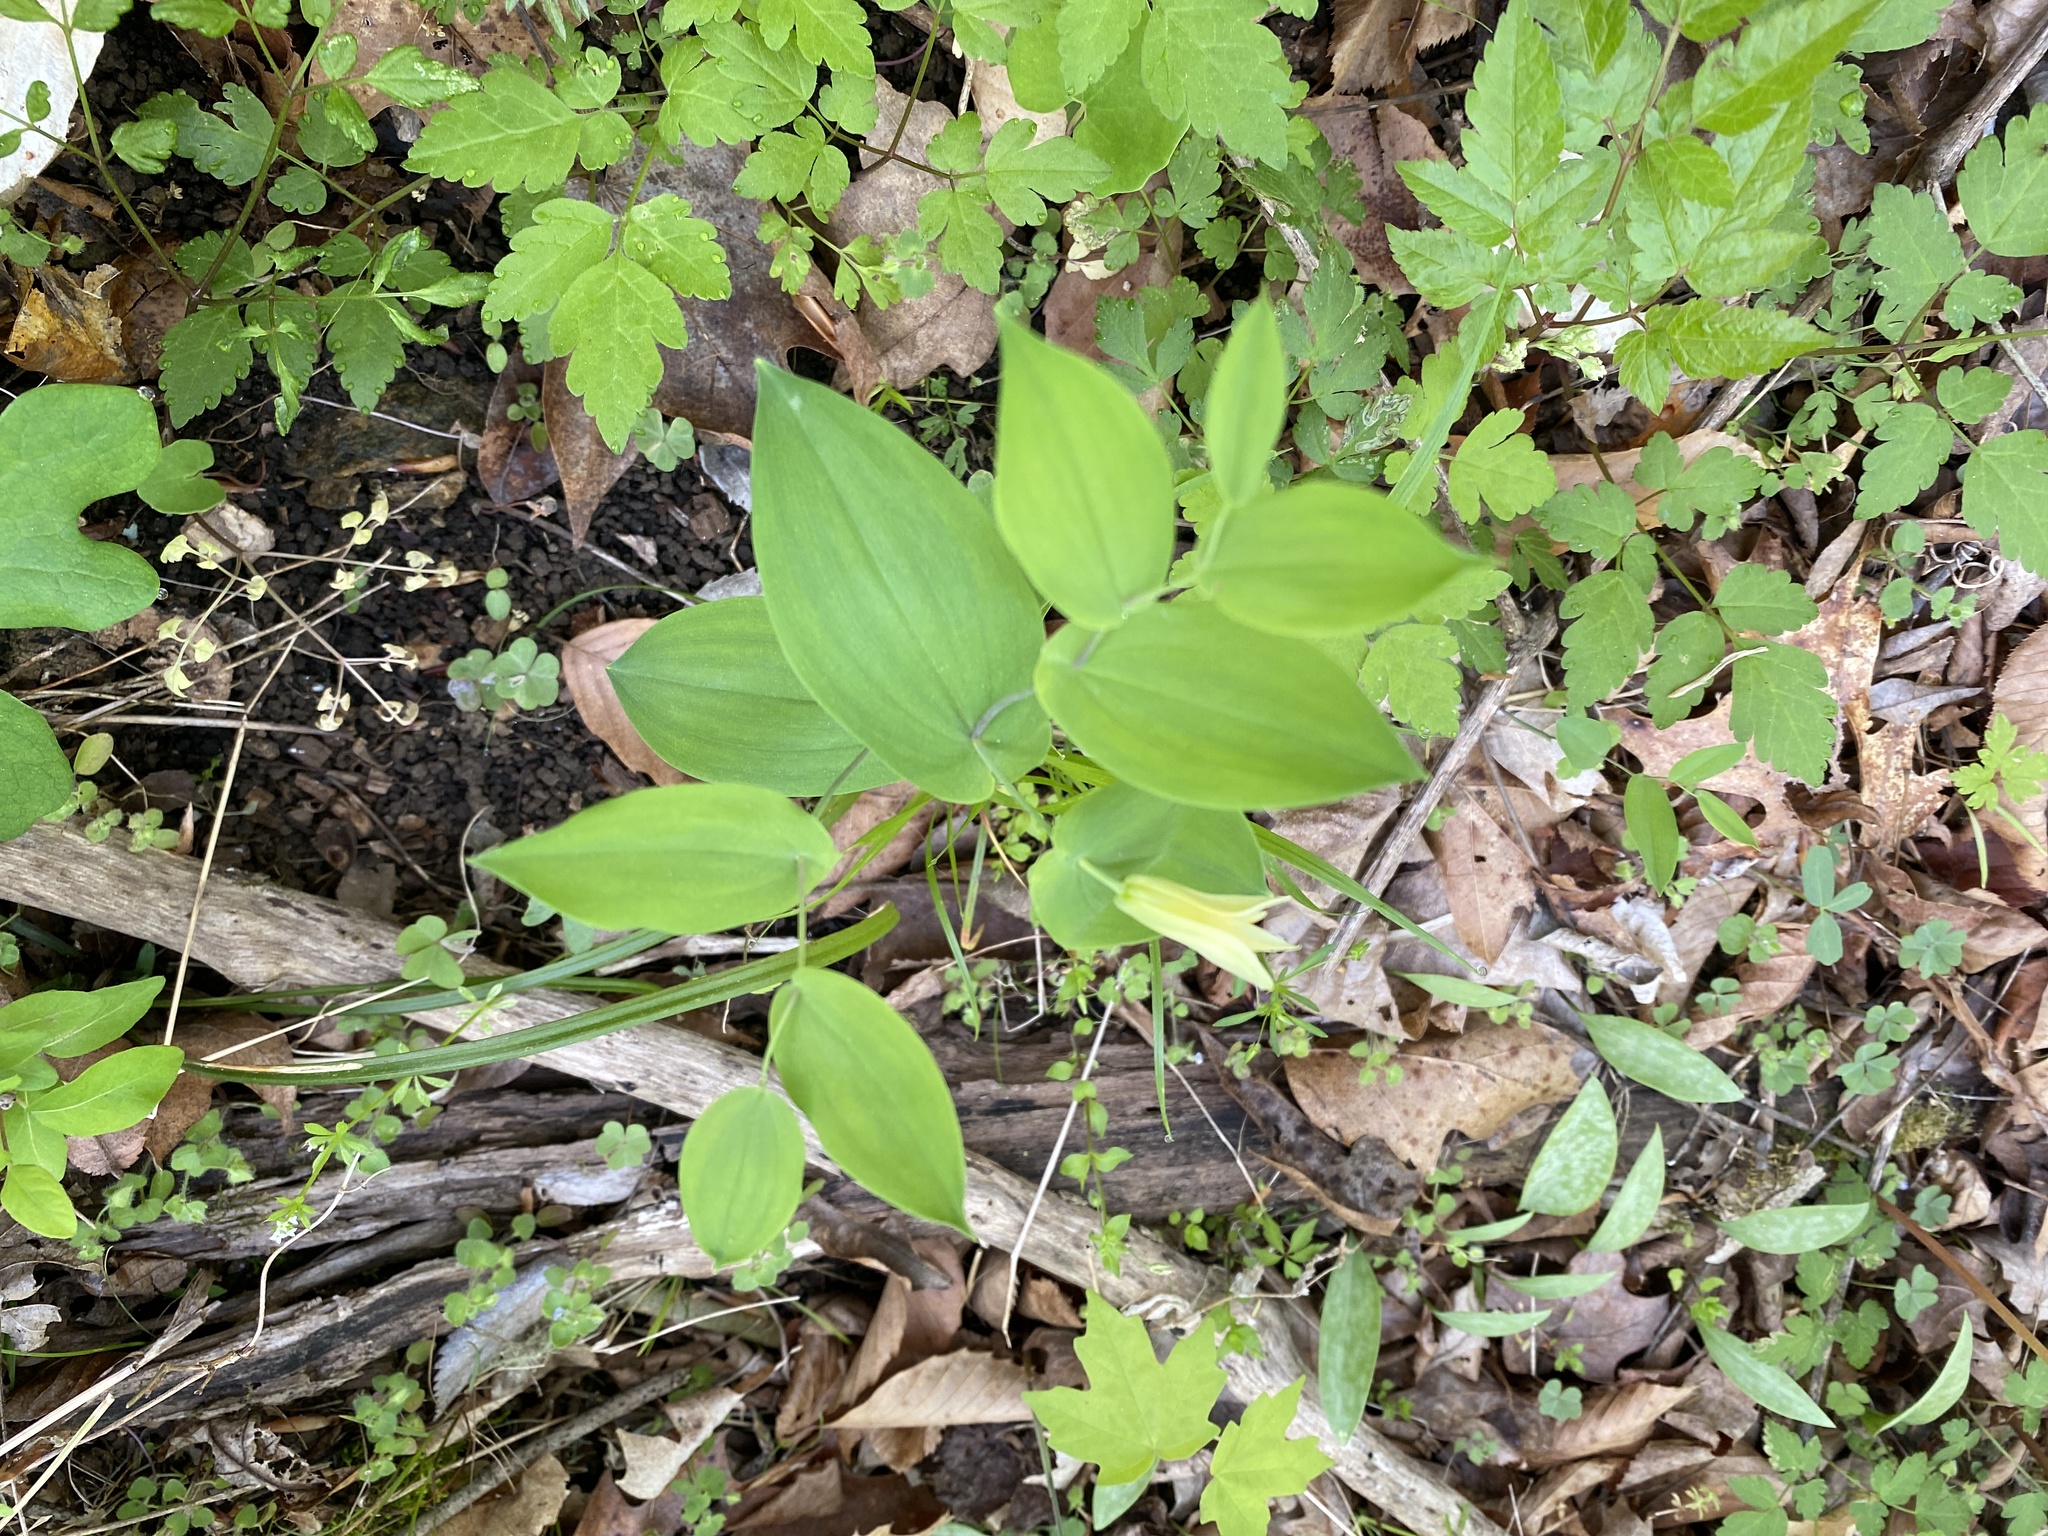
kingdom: Plantae
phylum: Tracheophyta
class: Liliopsida
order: Liliales
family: Colchicaceae
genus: Uvularia
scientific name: Uvularia perfoliata
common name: Perfoliate bellwort
